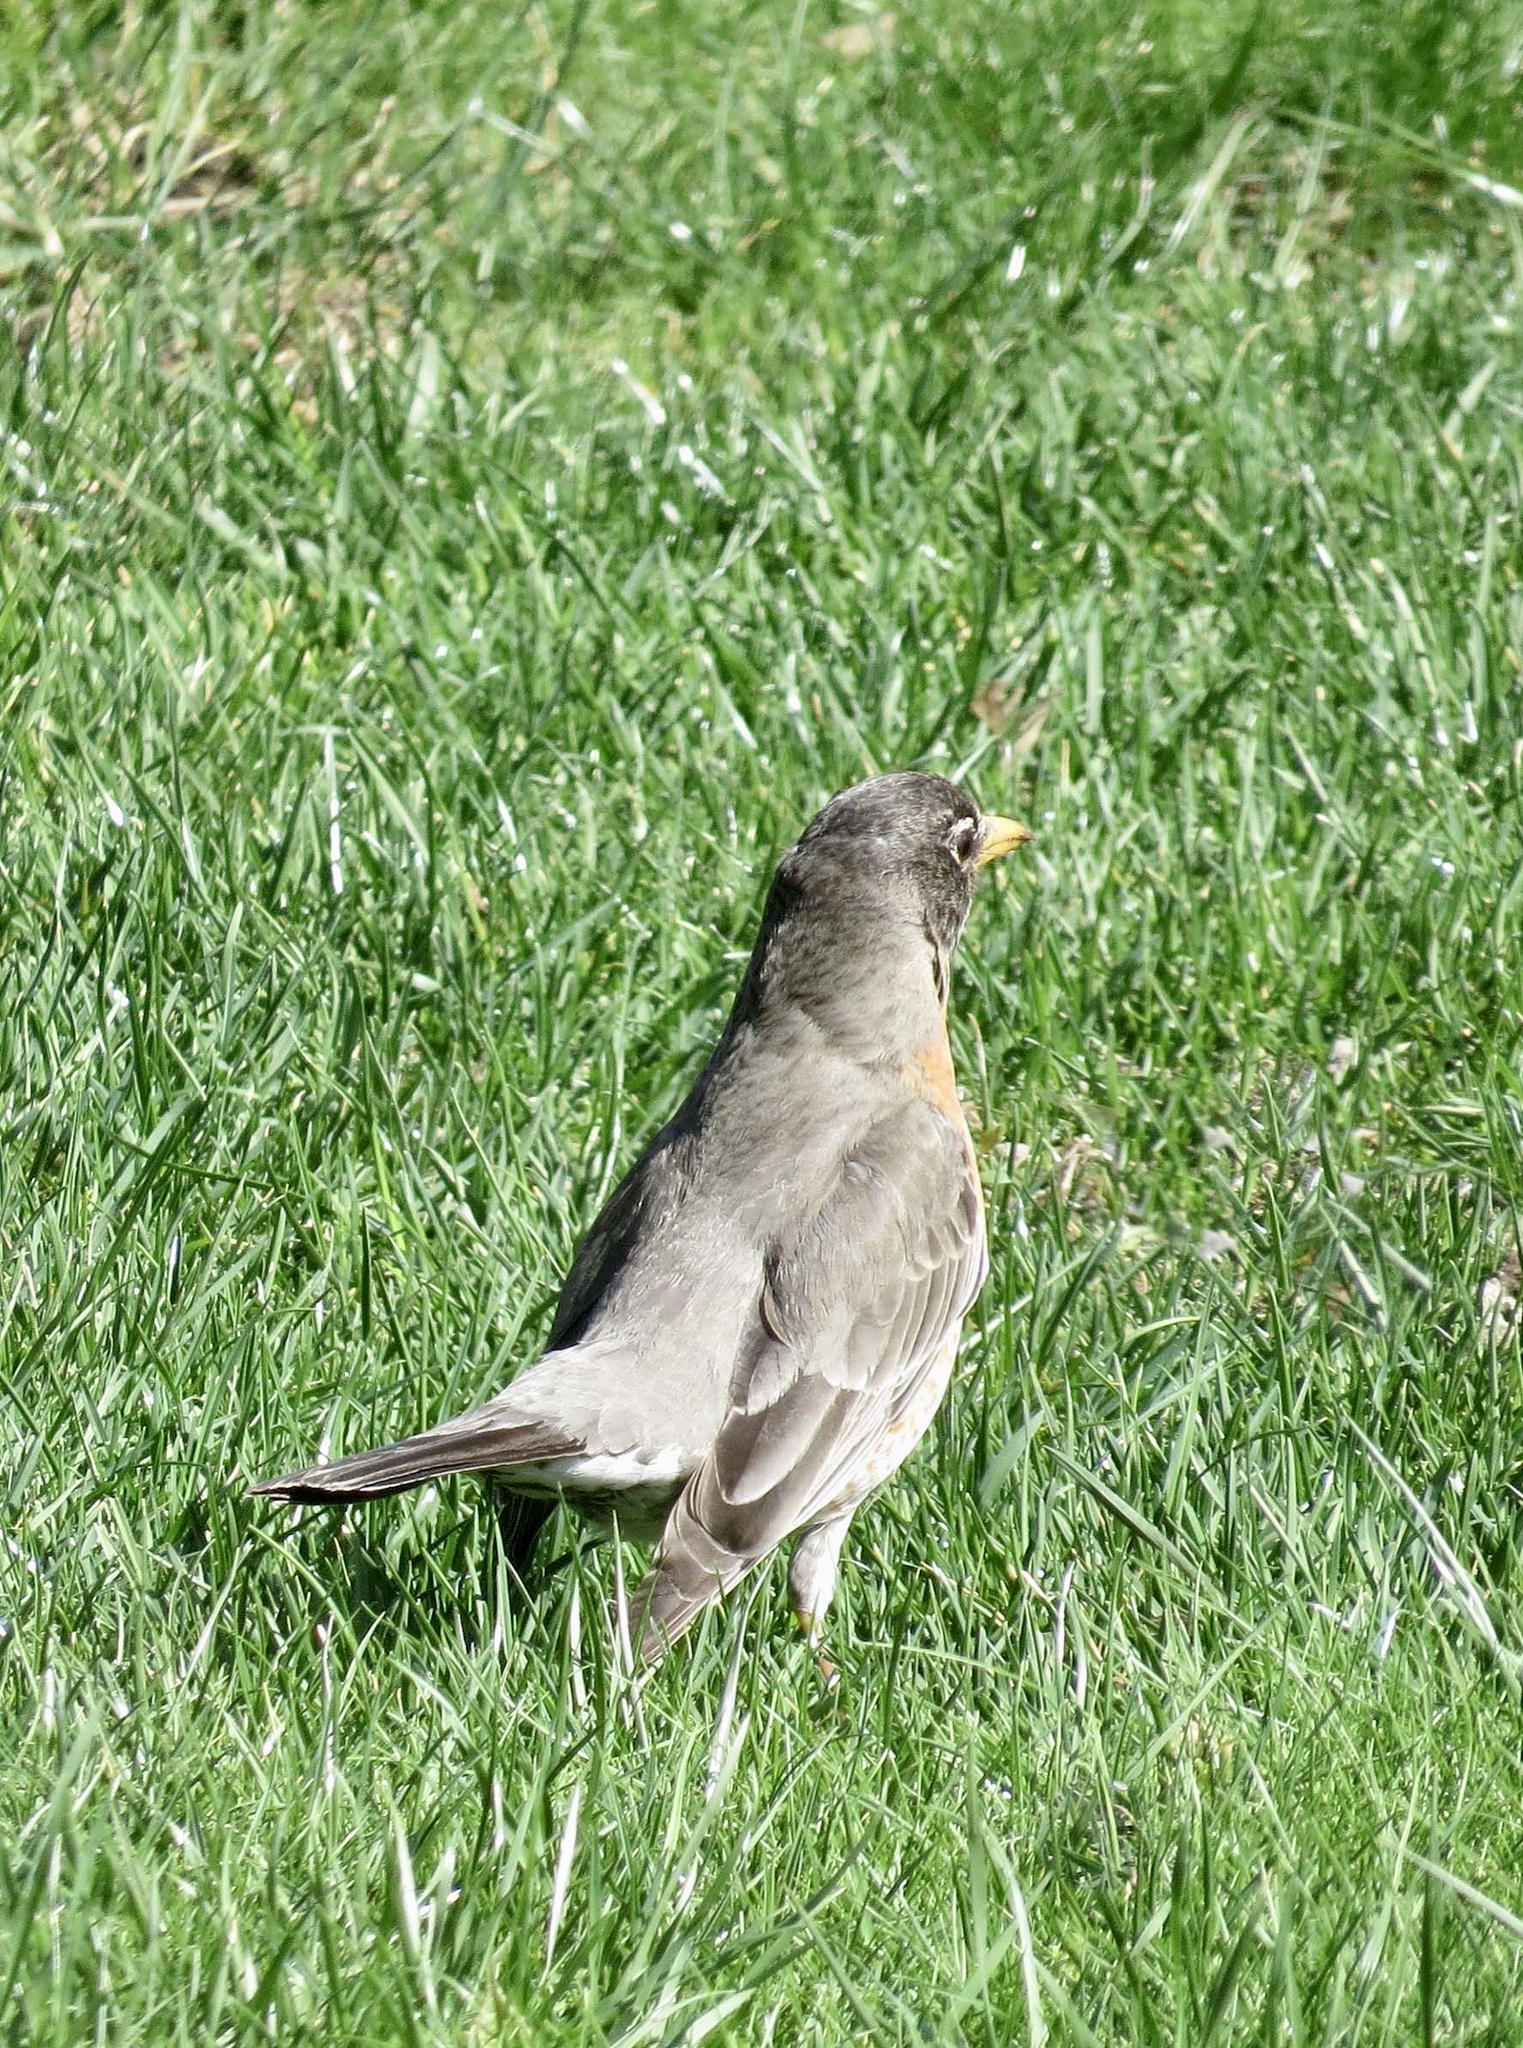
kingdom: Animalia
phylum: Chordata
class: Aves
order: Passeriformes
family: Turdidae
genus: Turdus
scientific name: Turdus migratorius
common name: American robin
